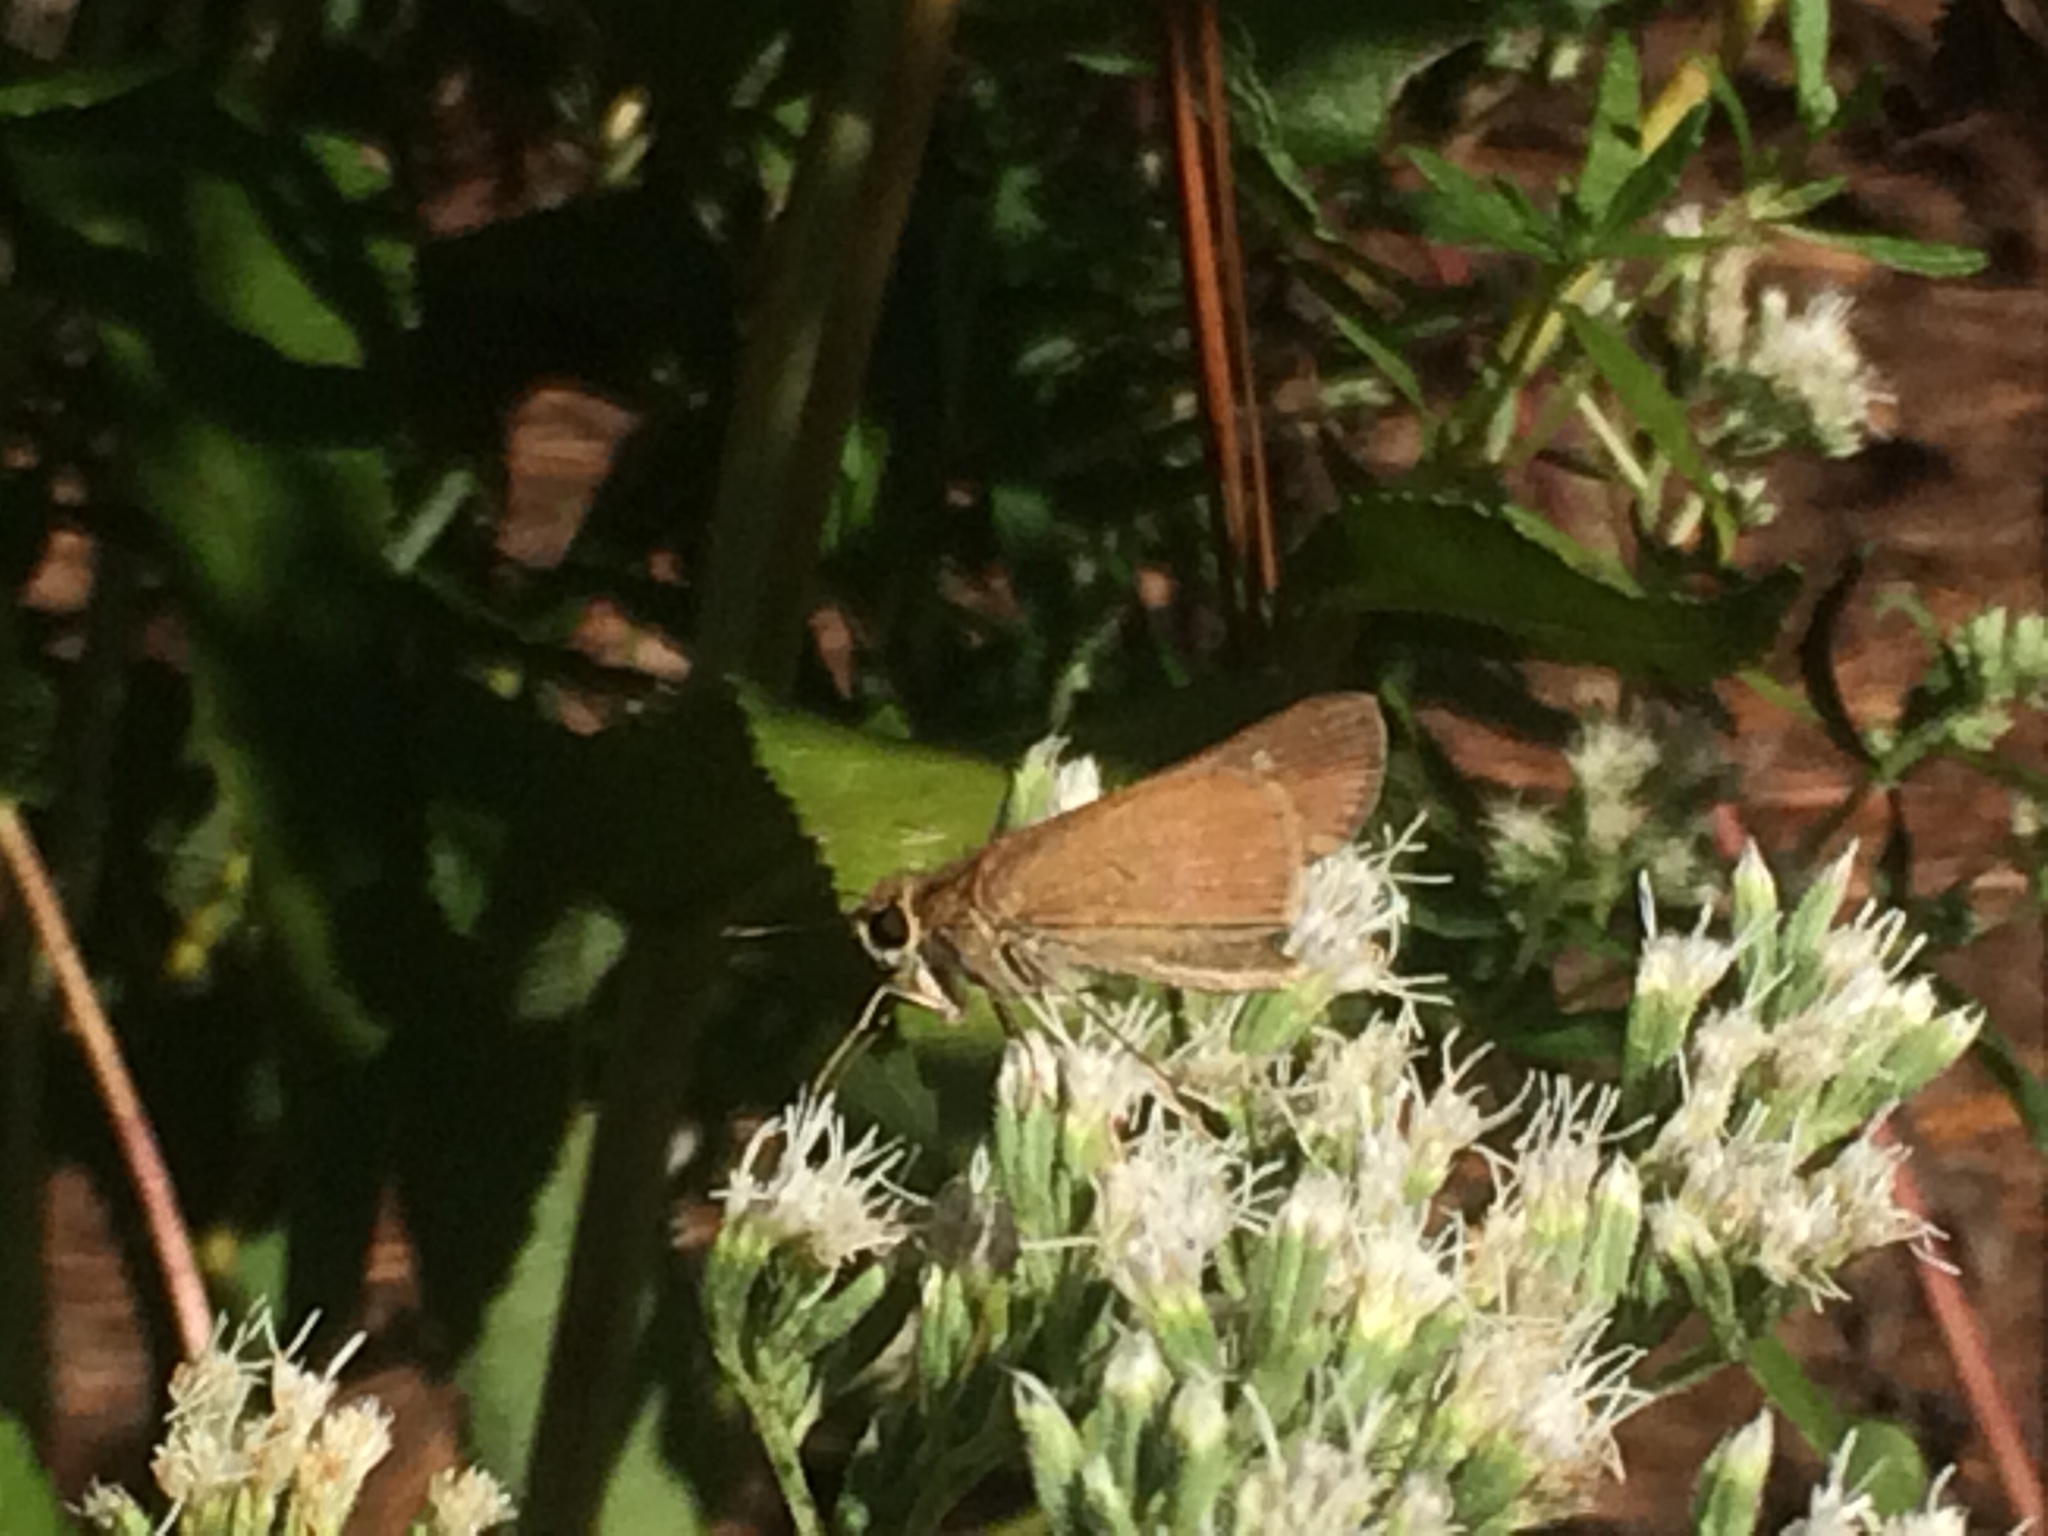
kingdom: Animalia
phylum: Arthropoda
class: Insecta
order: Lepidoptera
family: Hesperiidae
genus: Panoquina
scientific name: Panoquina ocola
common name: Ocola skipper
